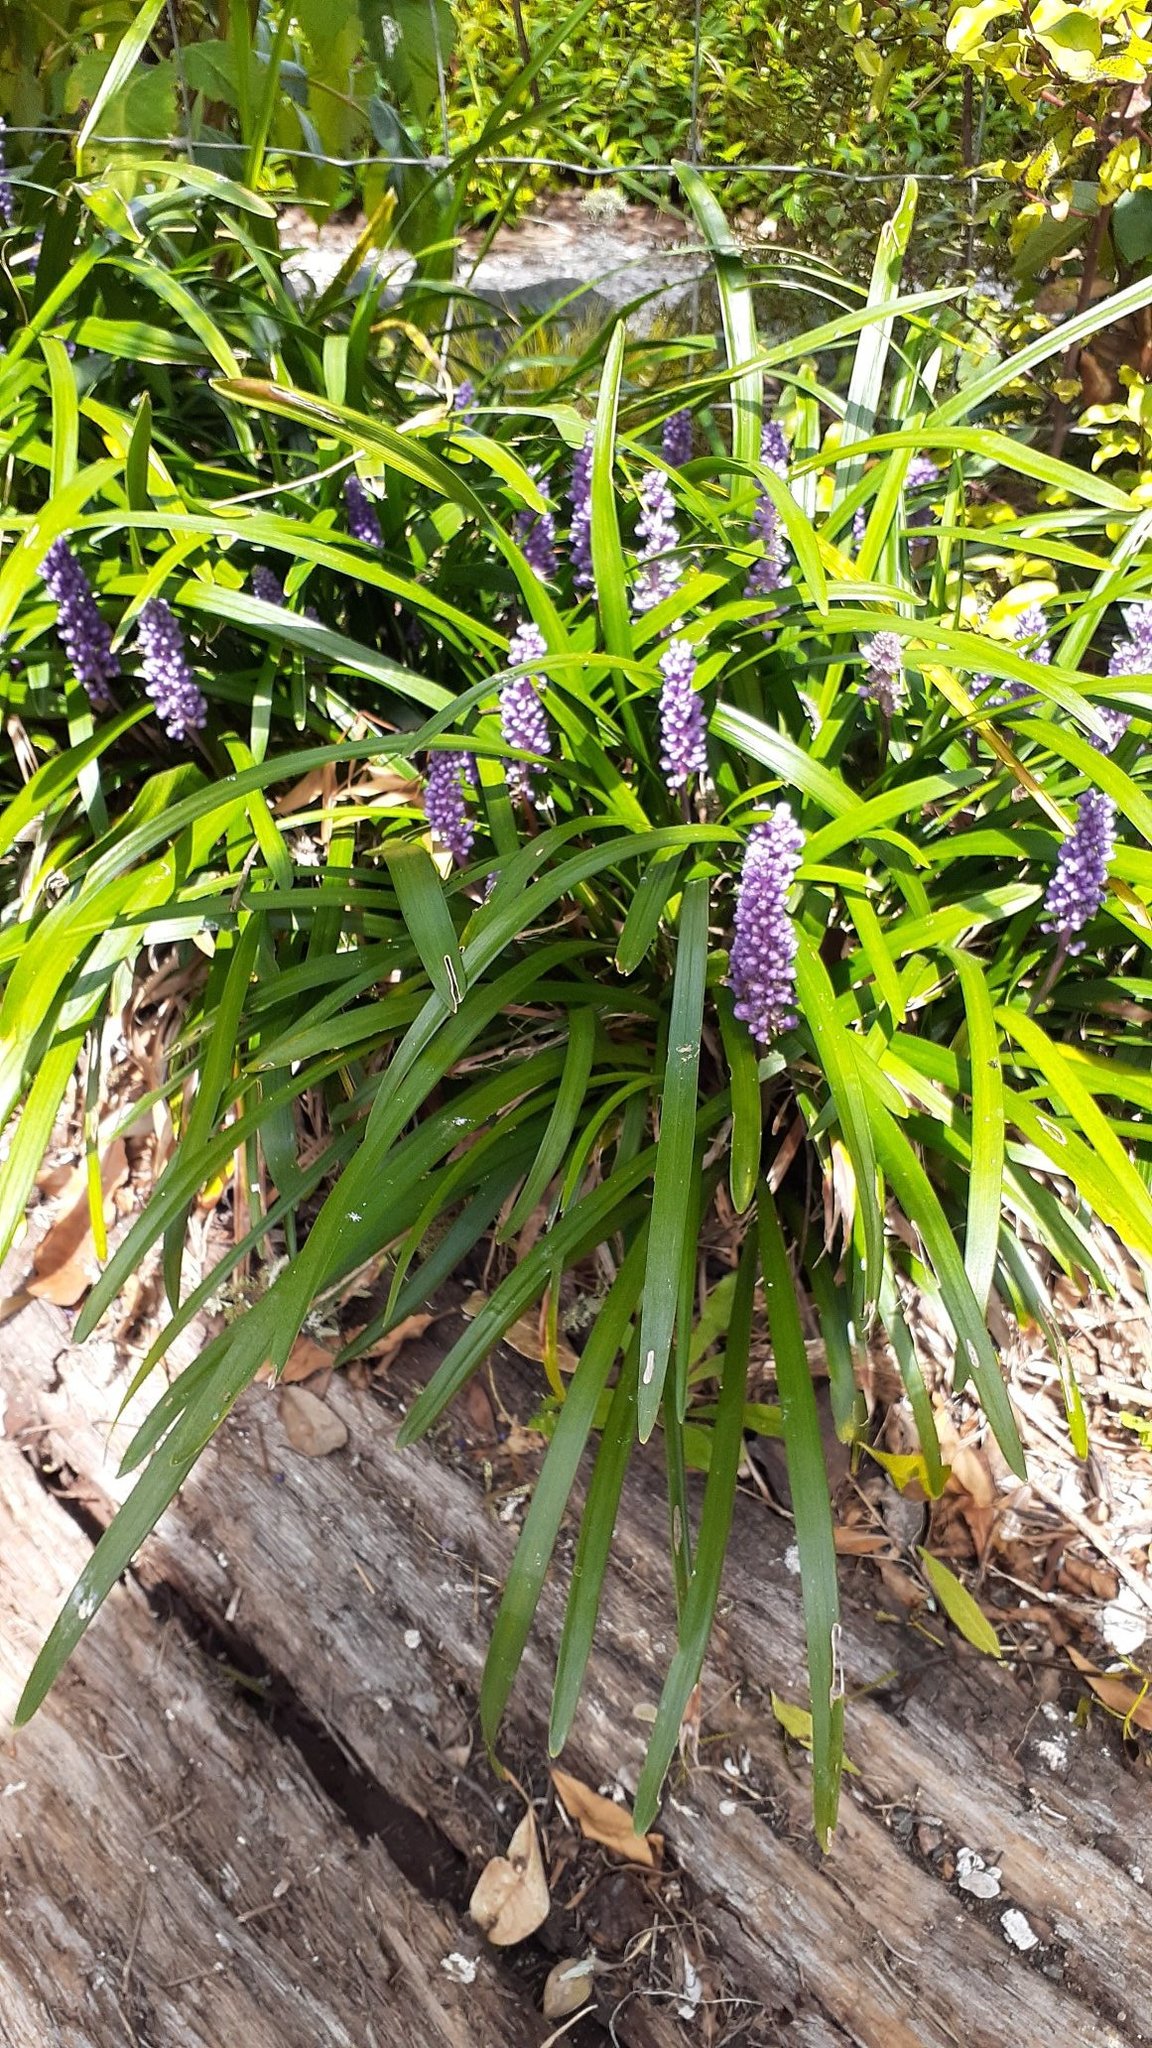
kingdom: Plantae
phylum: Tracheophyta
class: Liliopsida
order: Asparagales
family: Asparagaceae
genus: Liriope
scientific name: Liriope muscari
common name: Big blue lilyturf
